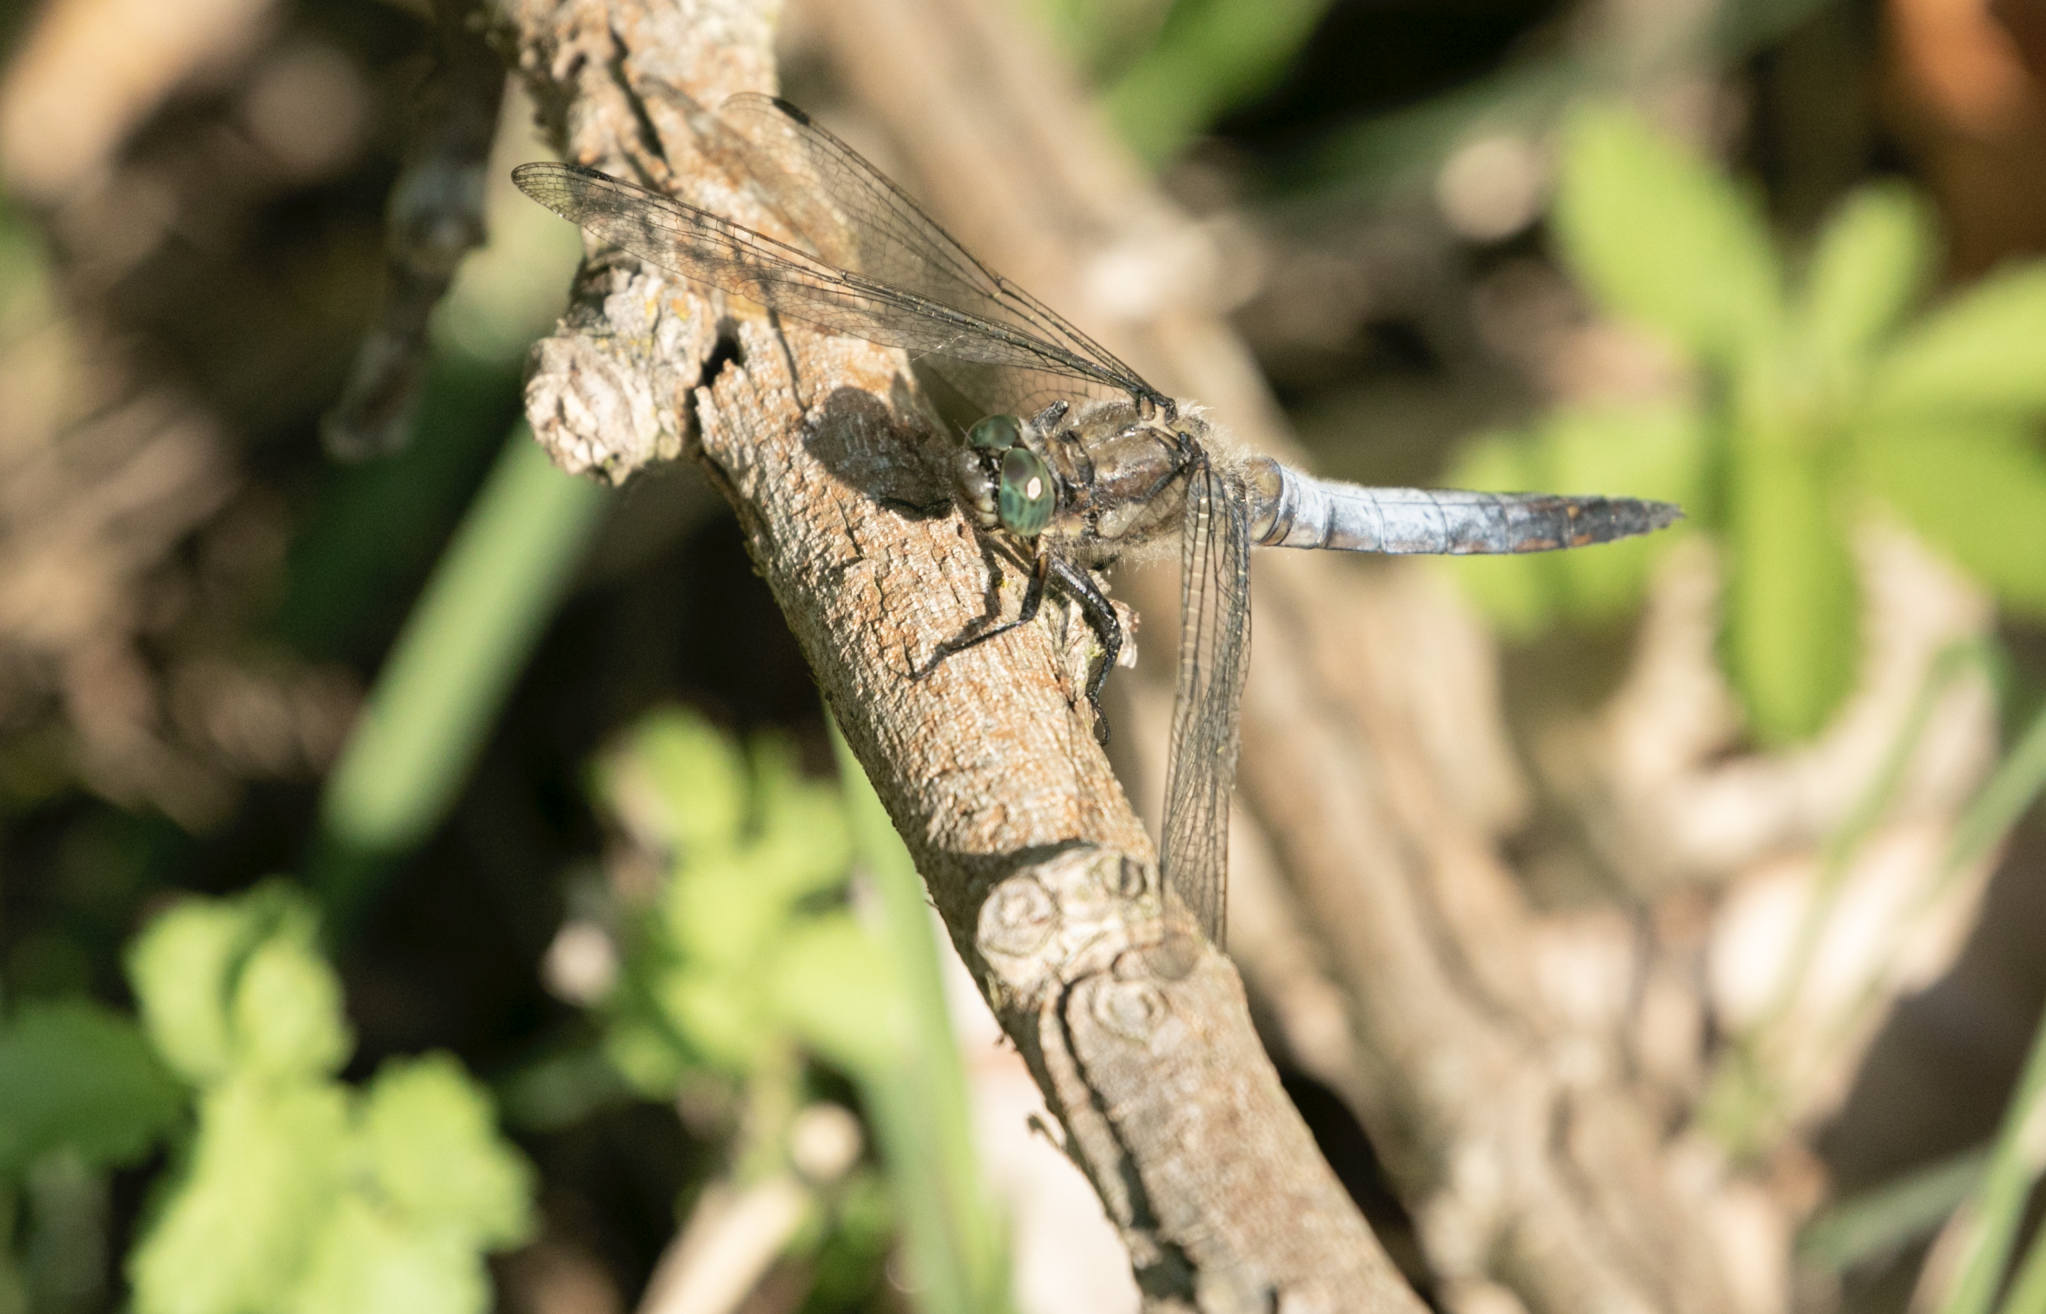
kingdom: Animalia
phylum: Arthropoda
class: Insecta
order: Odonata
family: Libellulidae
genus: Orthetrum
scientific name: Orthetrum cancellatum
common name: Black-tailed skimmer
